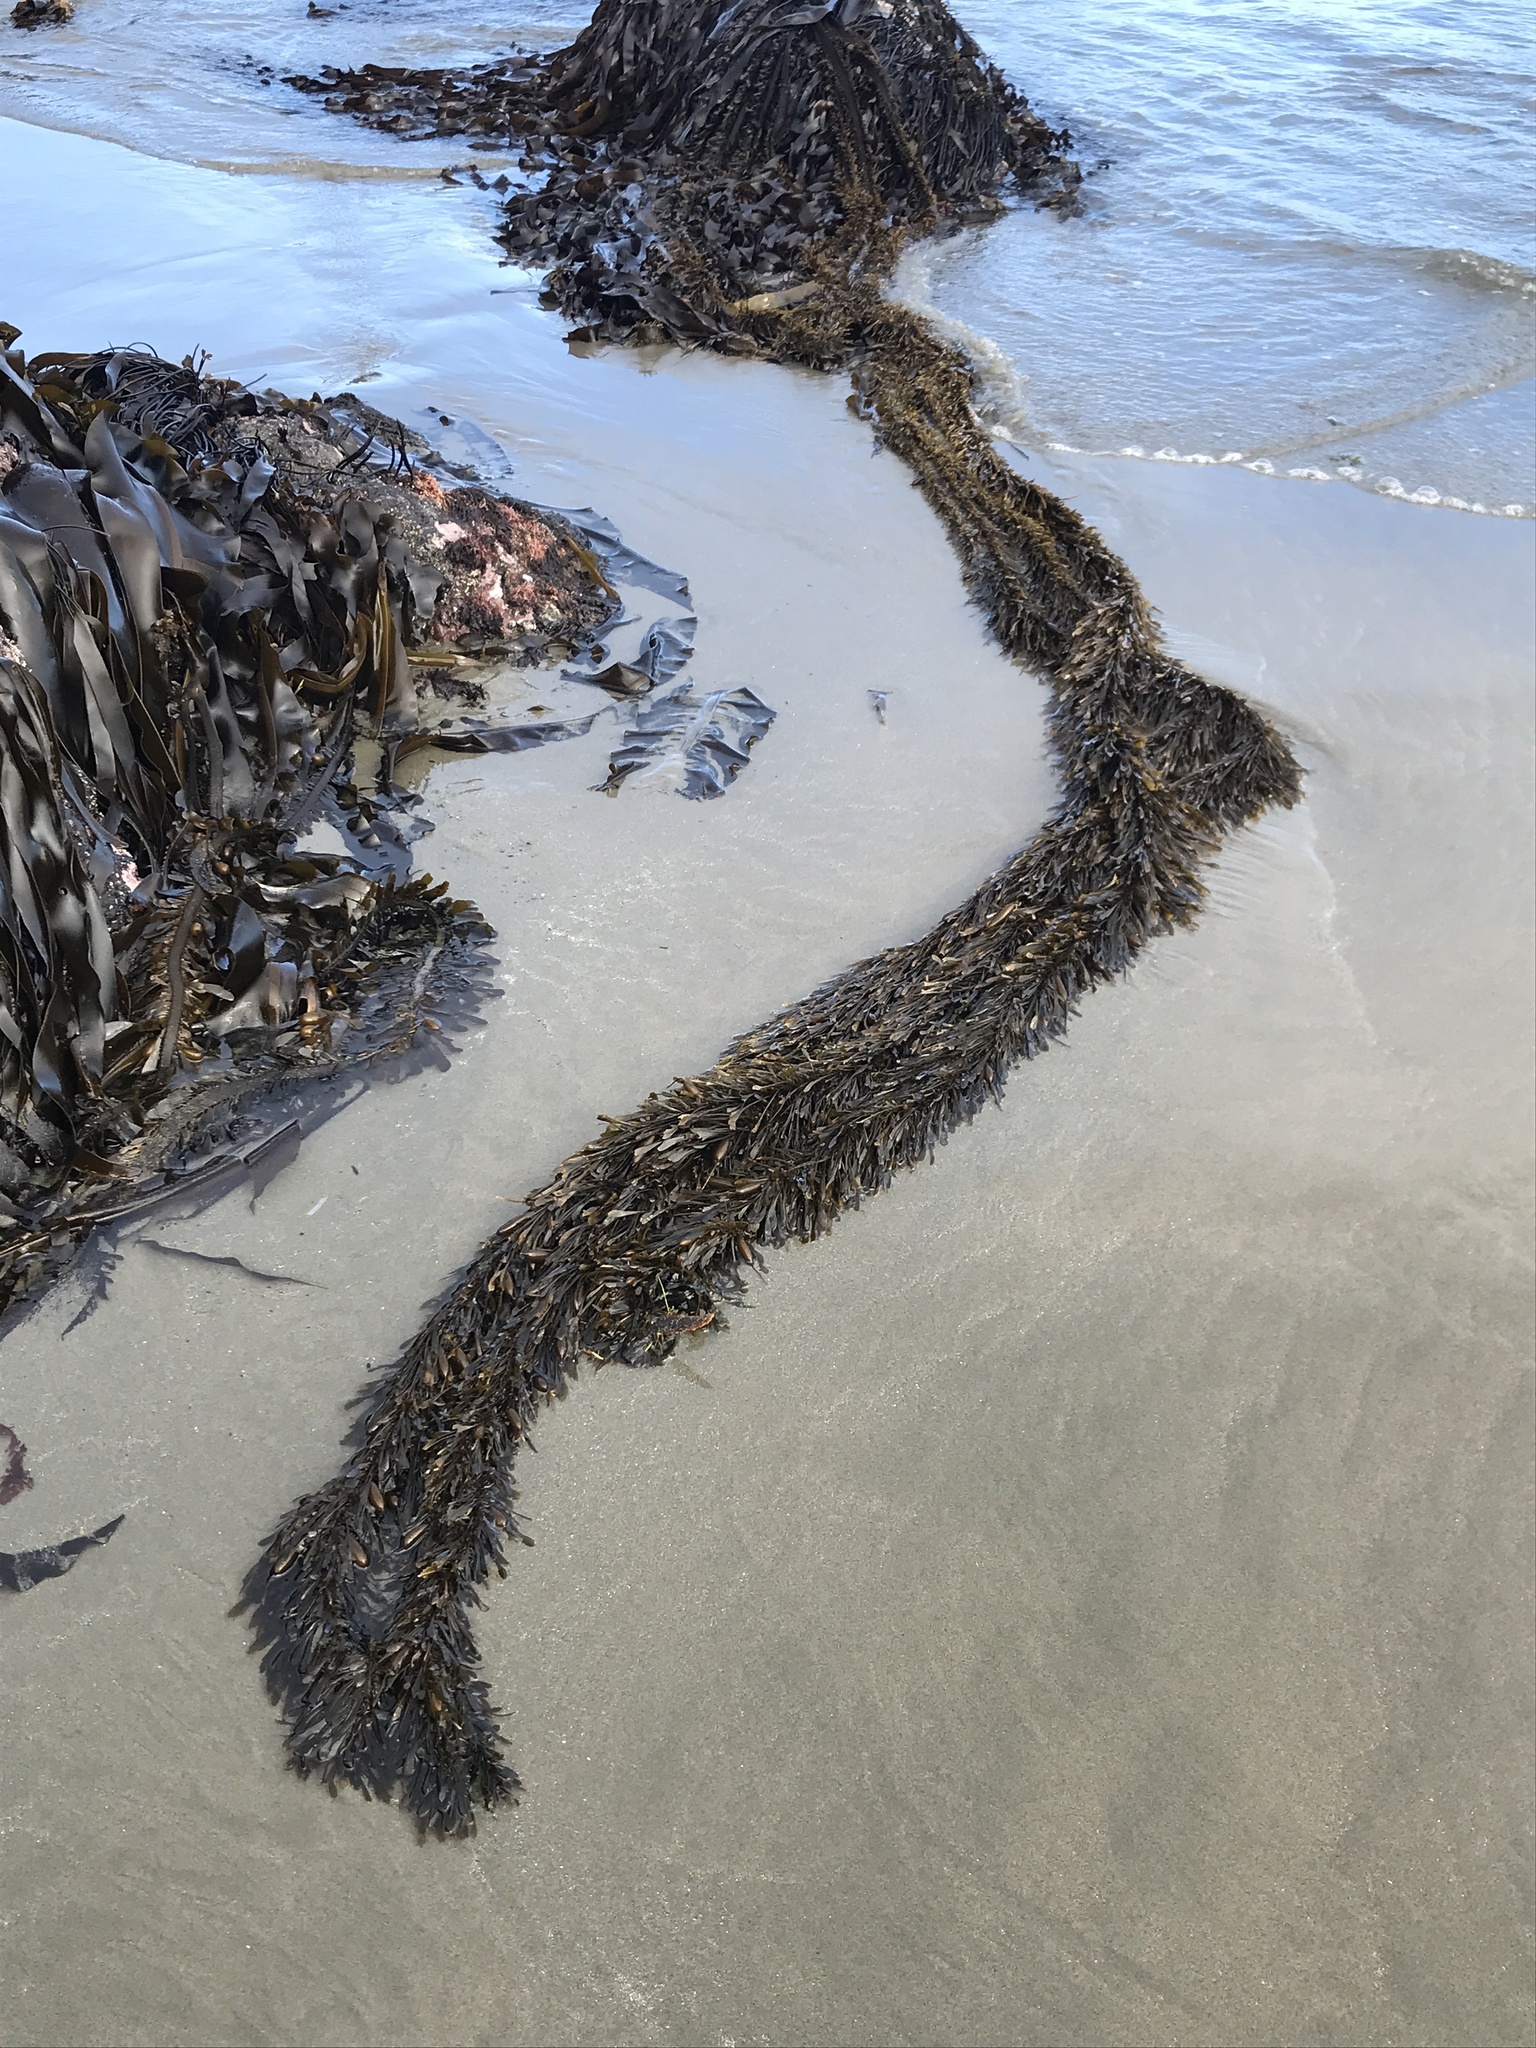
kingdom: Chromista
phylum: Ochrophyta
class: Phaeophyceae
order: Laminariales
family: Lessoniaceae
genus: Egregia
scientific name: Egregia menziesii
